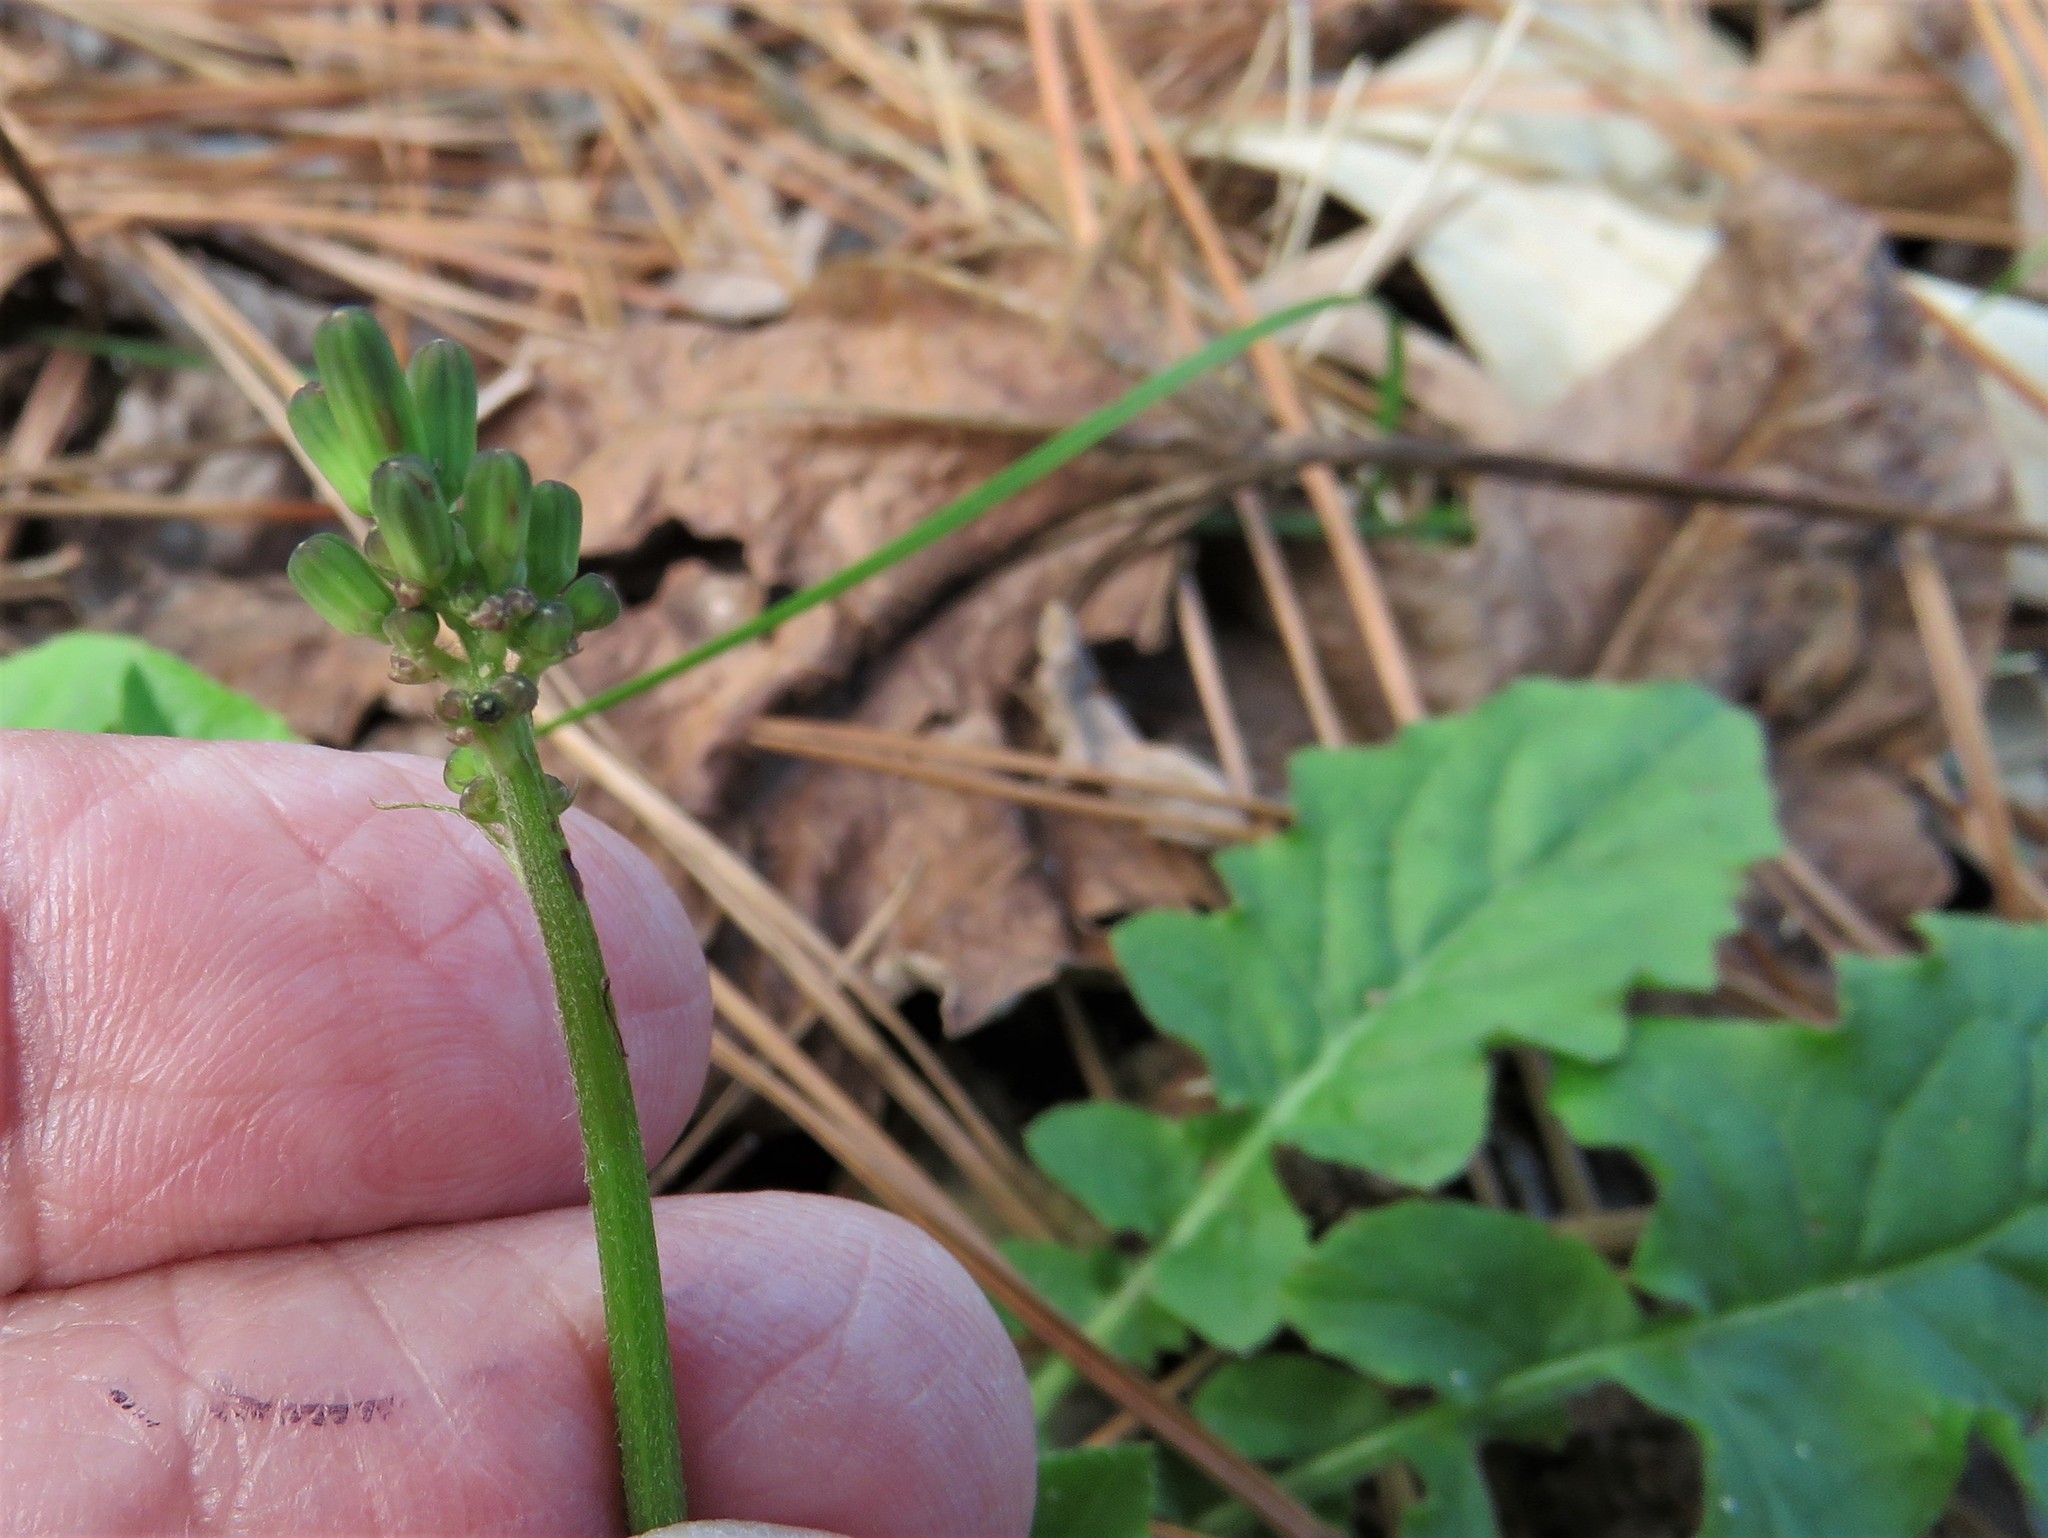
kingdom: Plantae
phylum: Tracheophyta
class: Magnoliopsida
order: Asterales
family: Asteraceae
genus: Youngia
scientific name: Youngia japonica
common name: Oriental false hawksbeard
